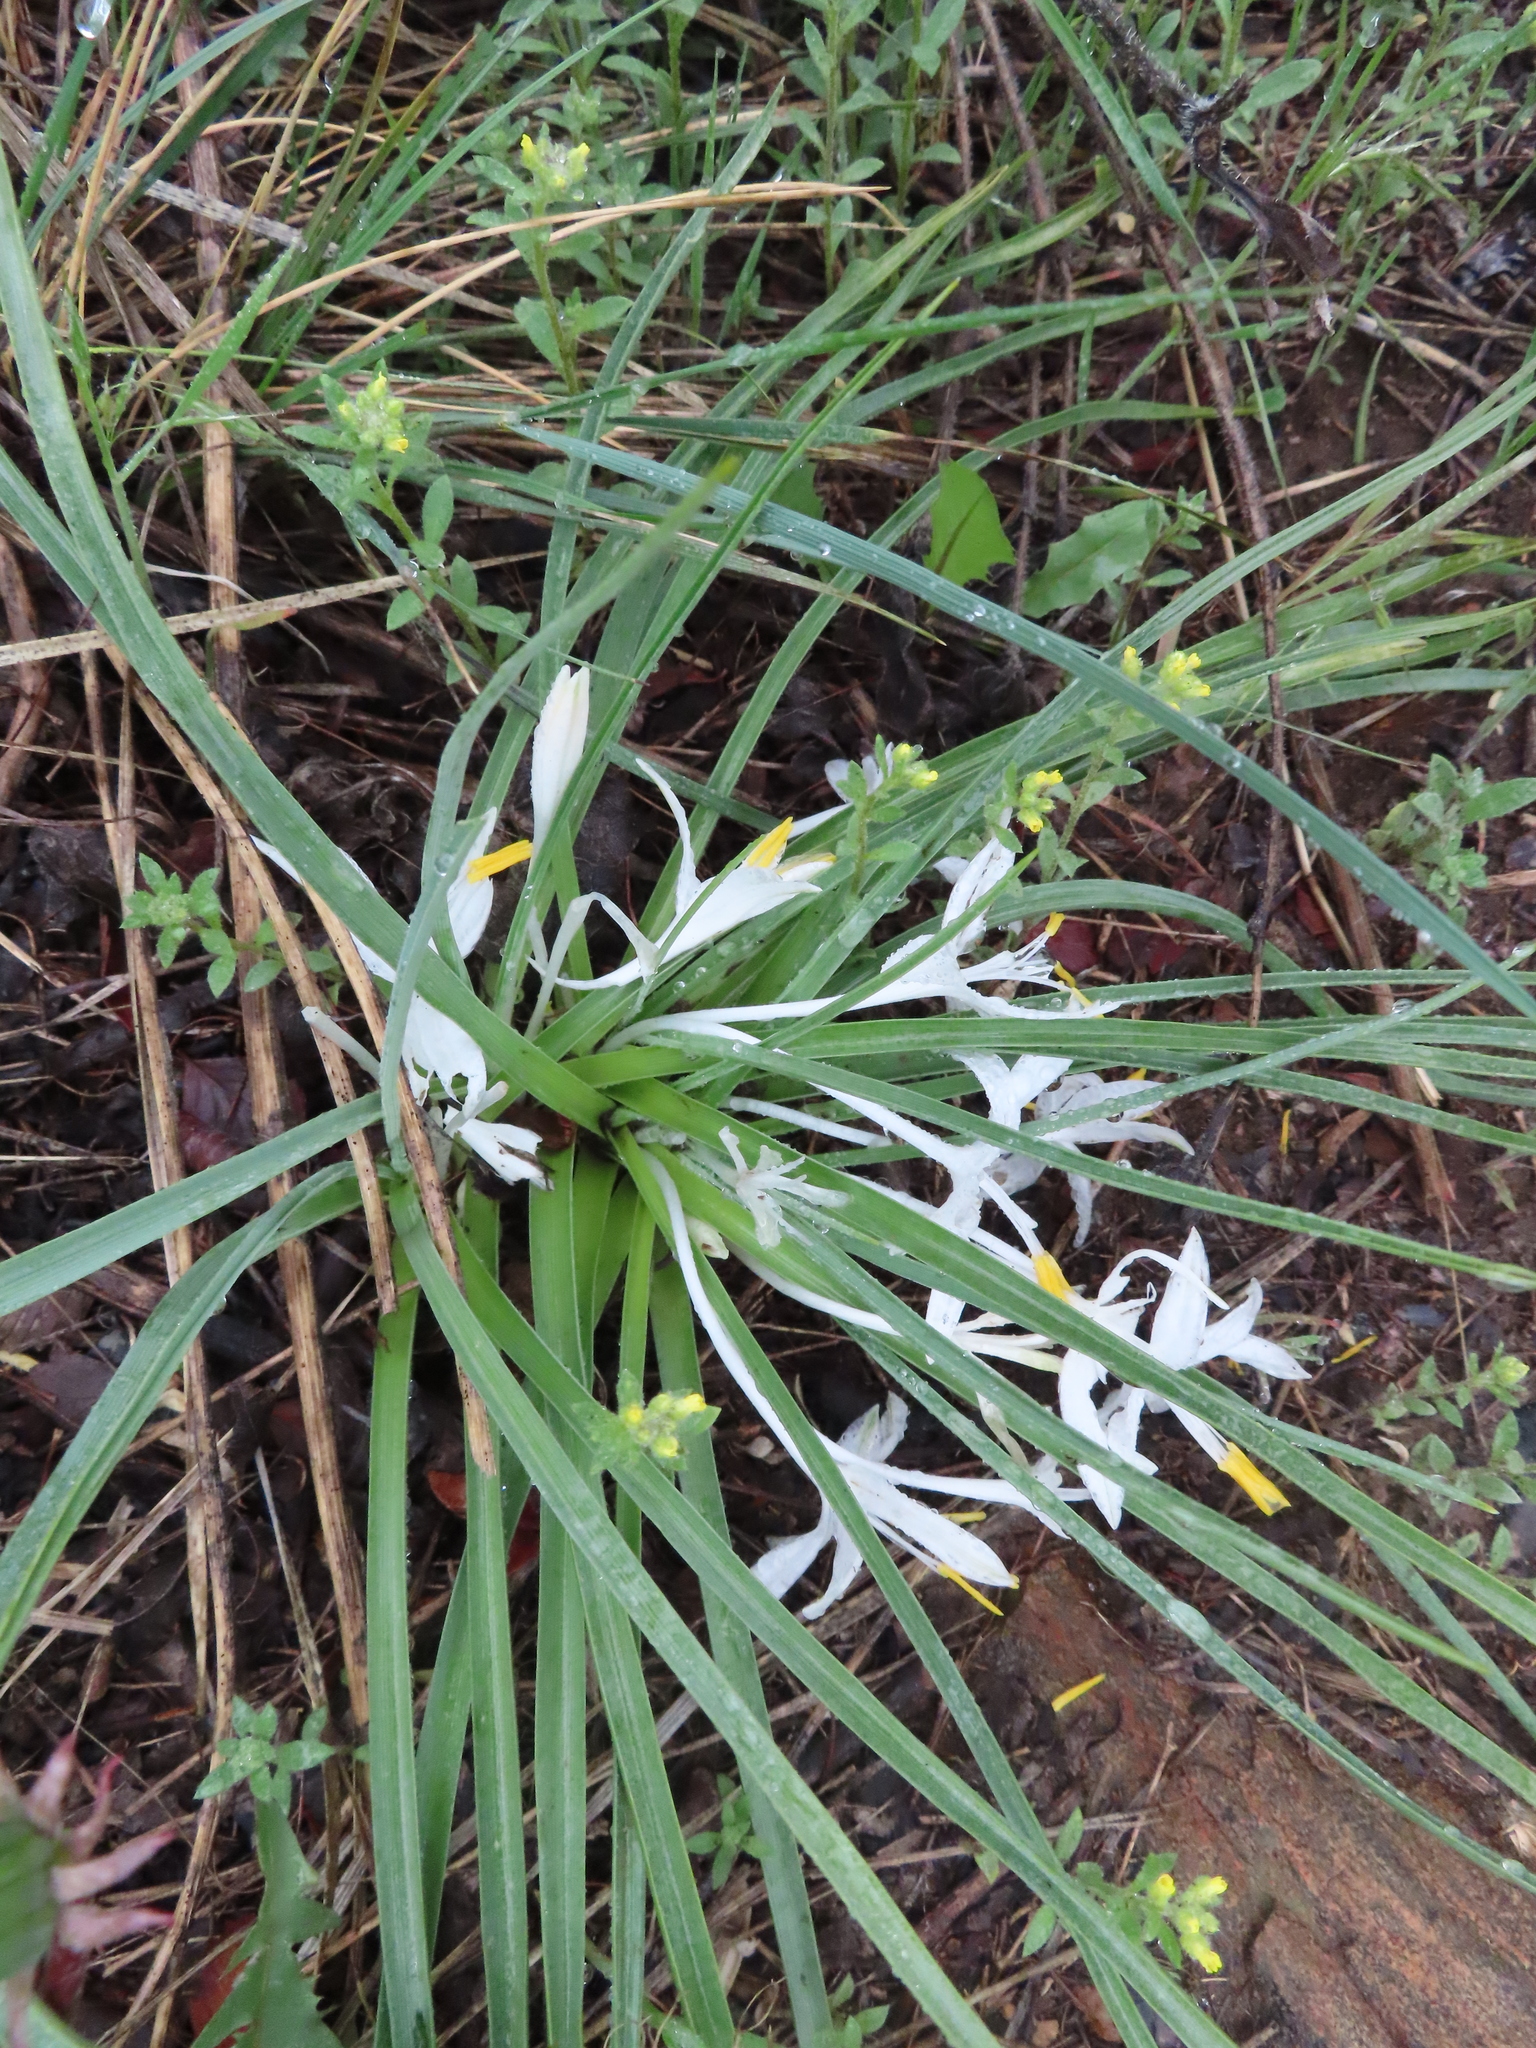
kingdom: Plantae
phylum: Tracheophyta
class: Liliopsida
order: Asparagales
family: Asparagaceae
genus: Leucocrinum
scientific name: Leucocrinum montanum
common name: Mountain-lily
